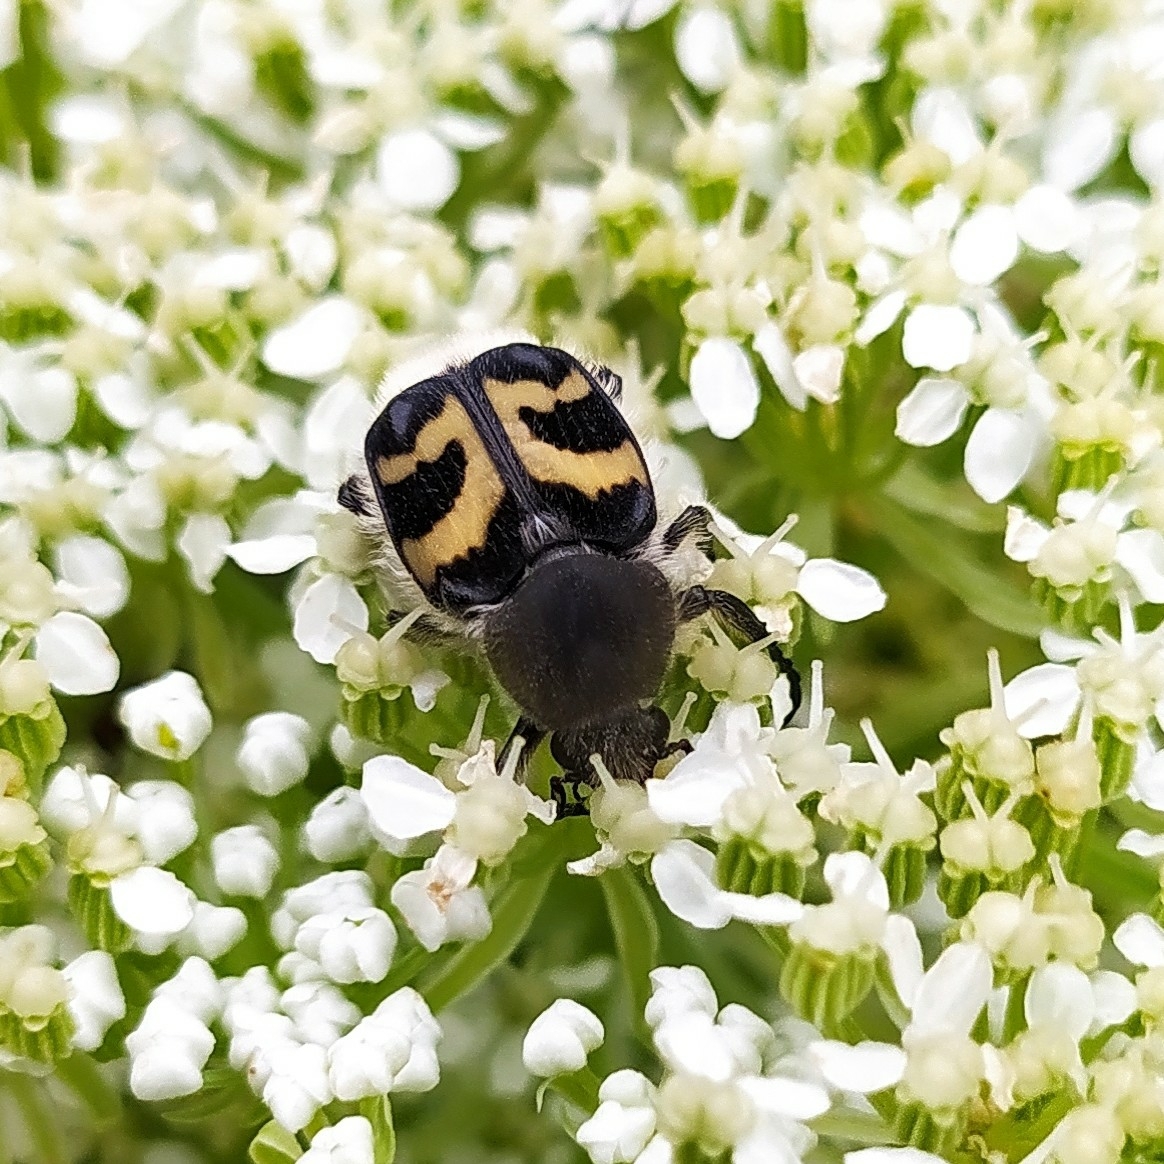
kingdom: Animalia
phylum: Arthropoda
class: Insecta
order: Coleoptera
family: Scarabaeidae
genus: Trichius
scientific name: Trichius fasciatus
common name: Bee beetle
